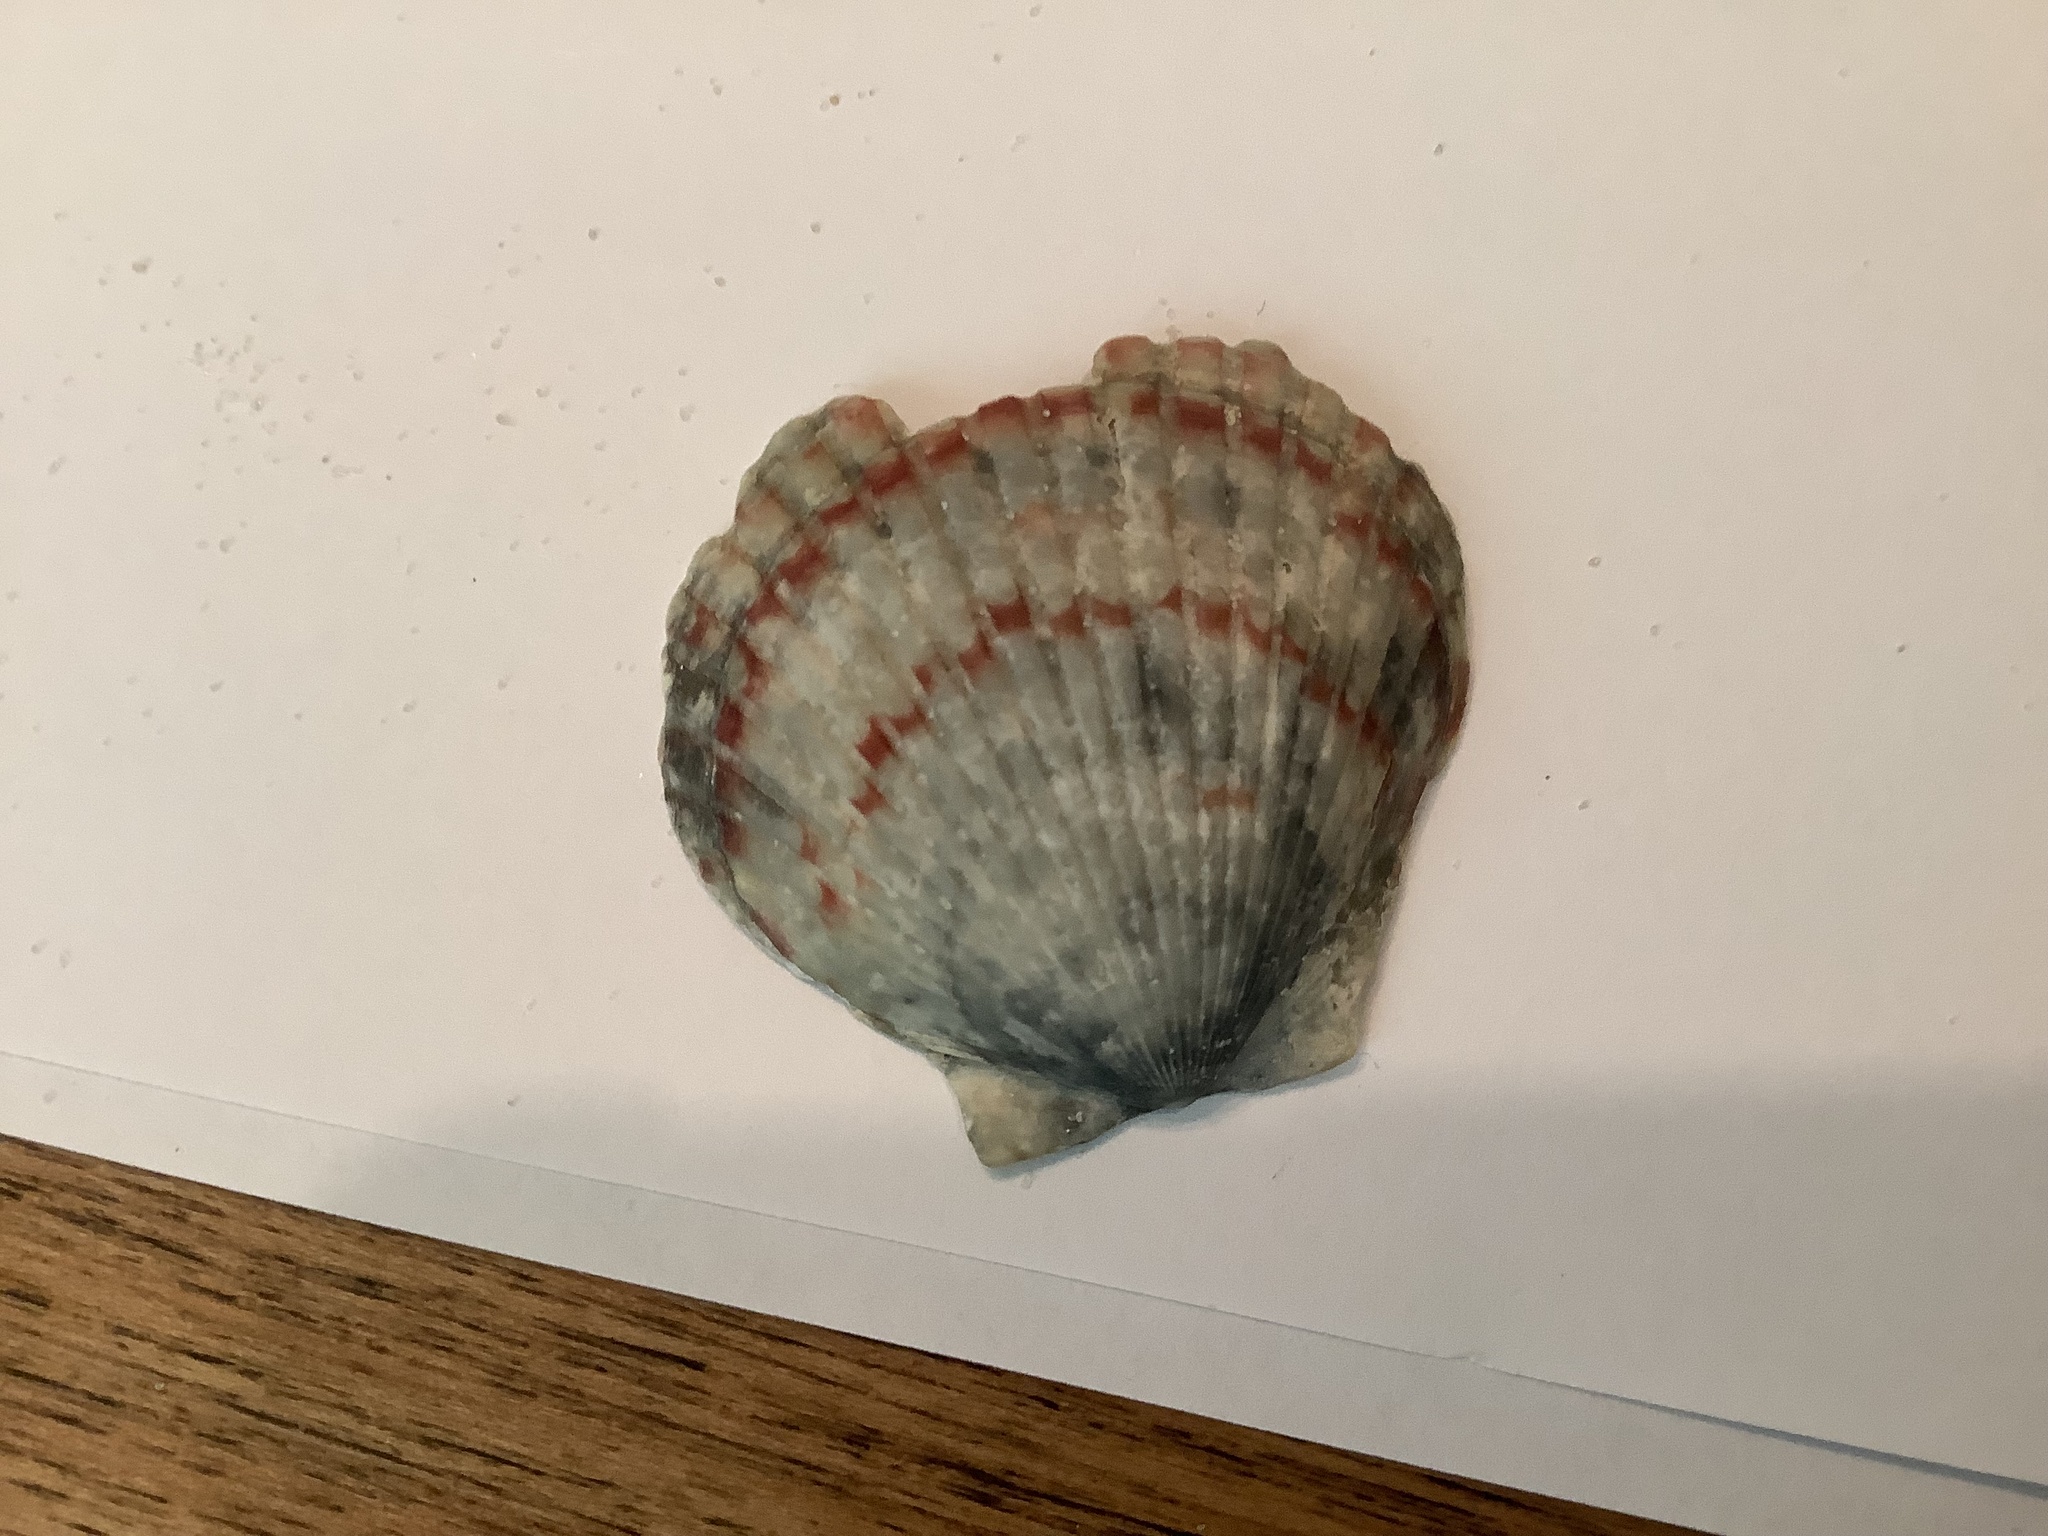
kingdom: Animalia
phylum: Mollusca
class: Bivalvia
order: Pectinida
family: Pectinidae
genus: Argopecten
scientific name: Argopecten gibbus
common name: Atlantic calico scallop
